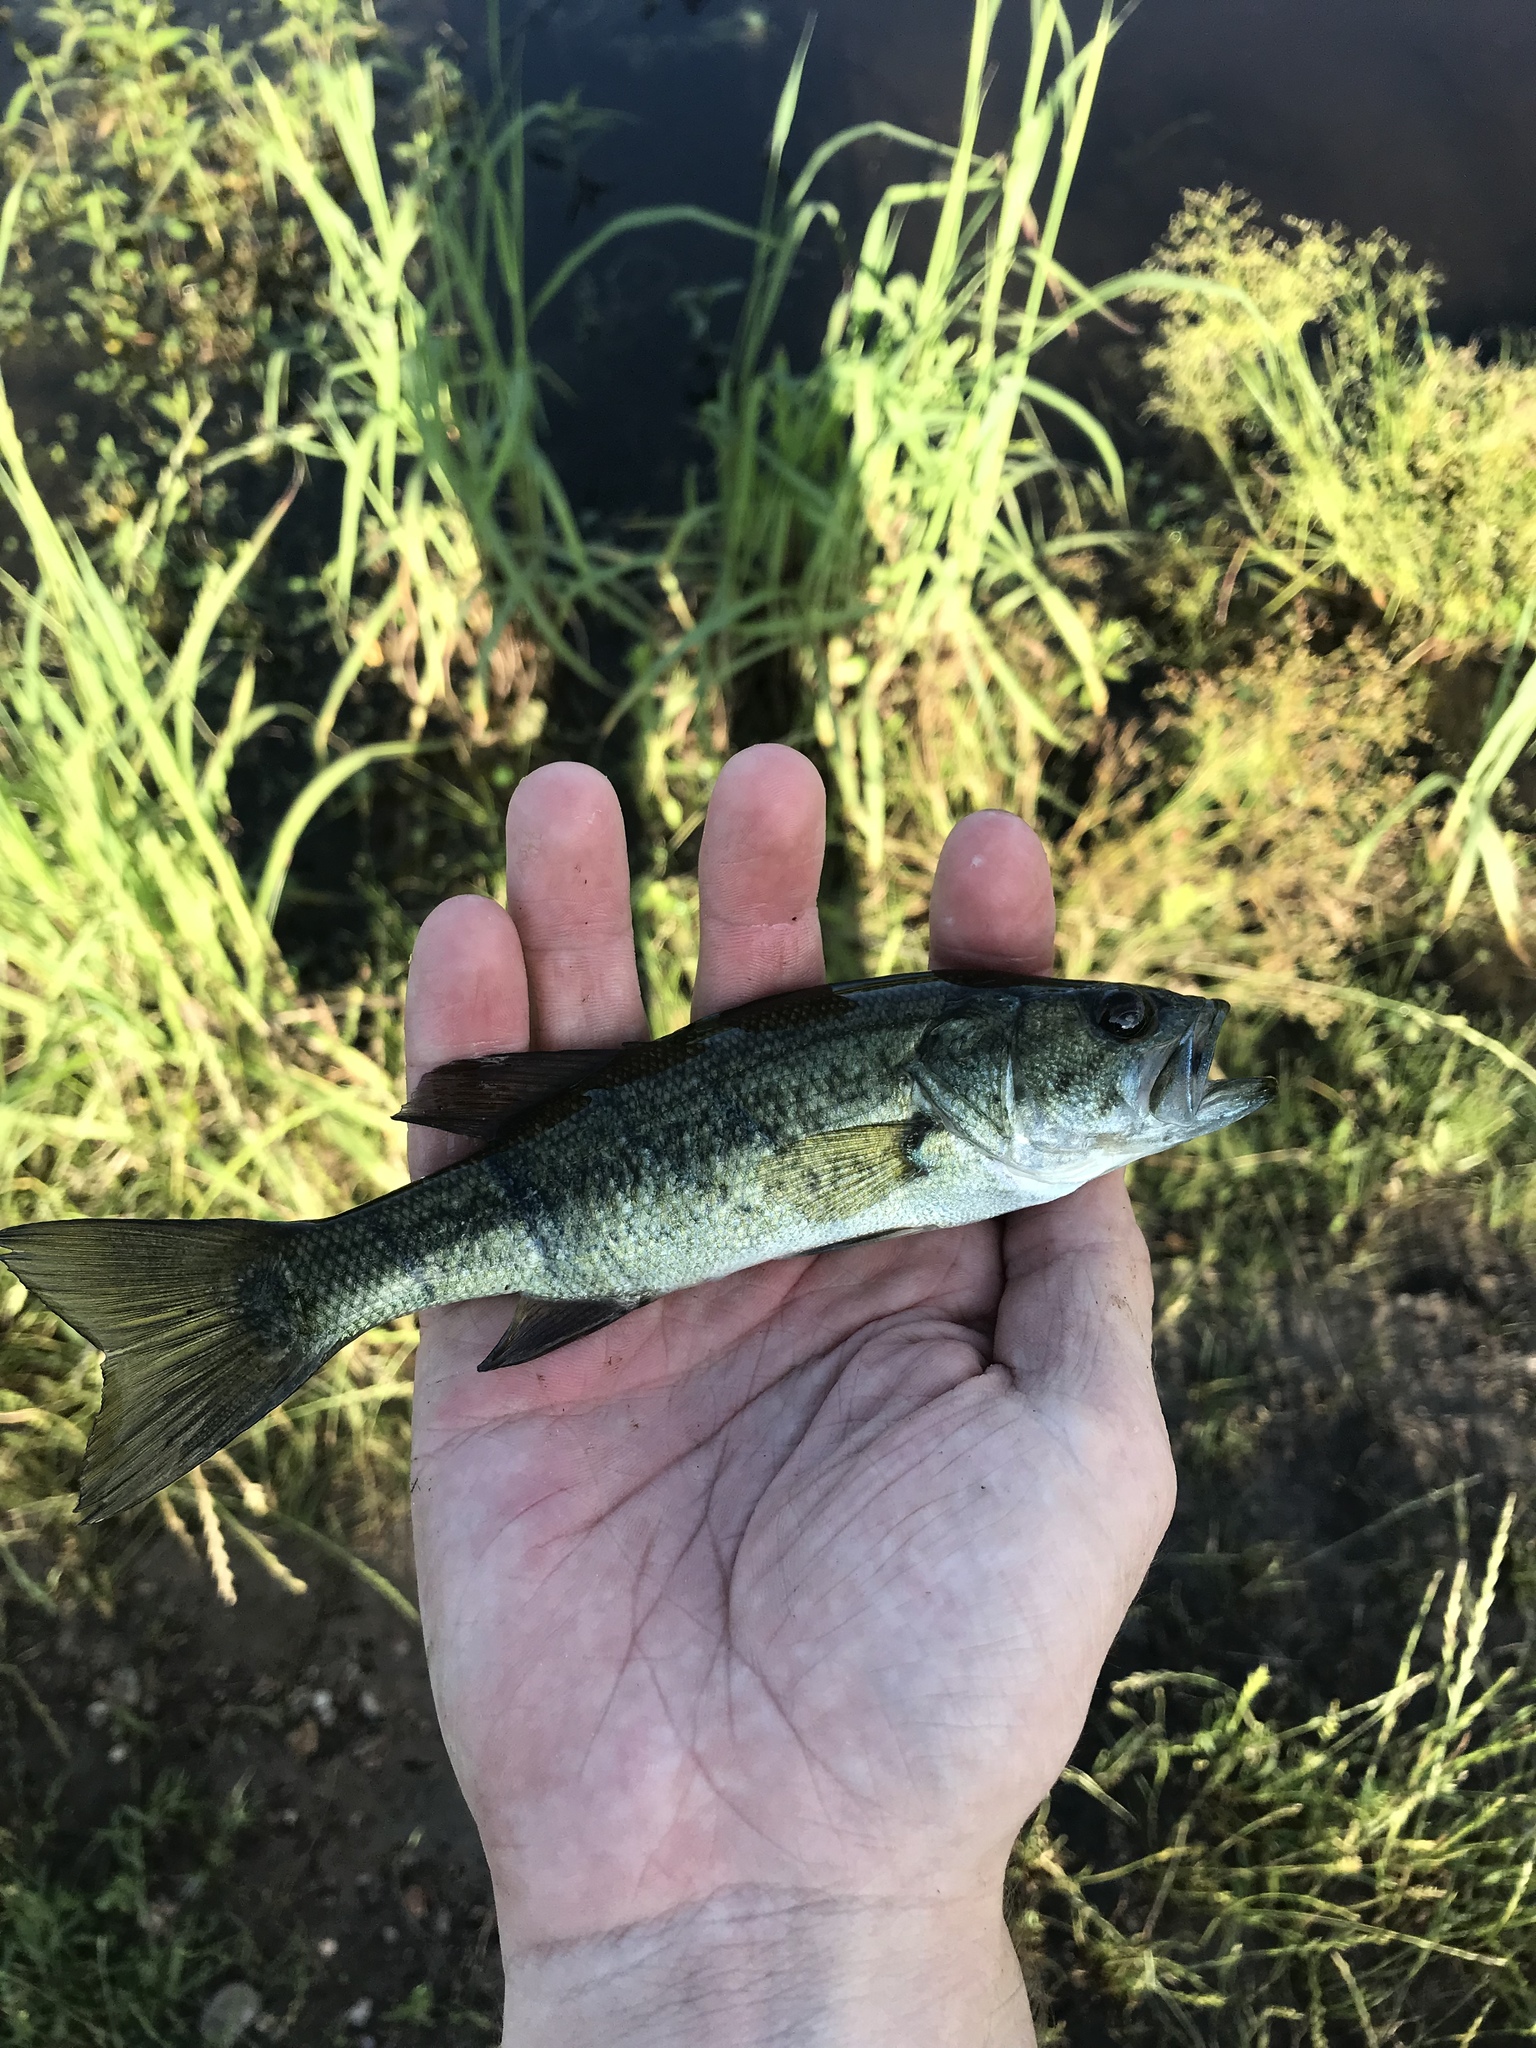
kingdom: Animalia
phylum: Chordata
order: Perciformes
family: Centrarchidae
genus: Micropterus
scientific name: Micropterus
